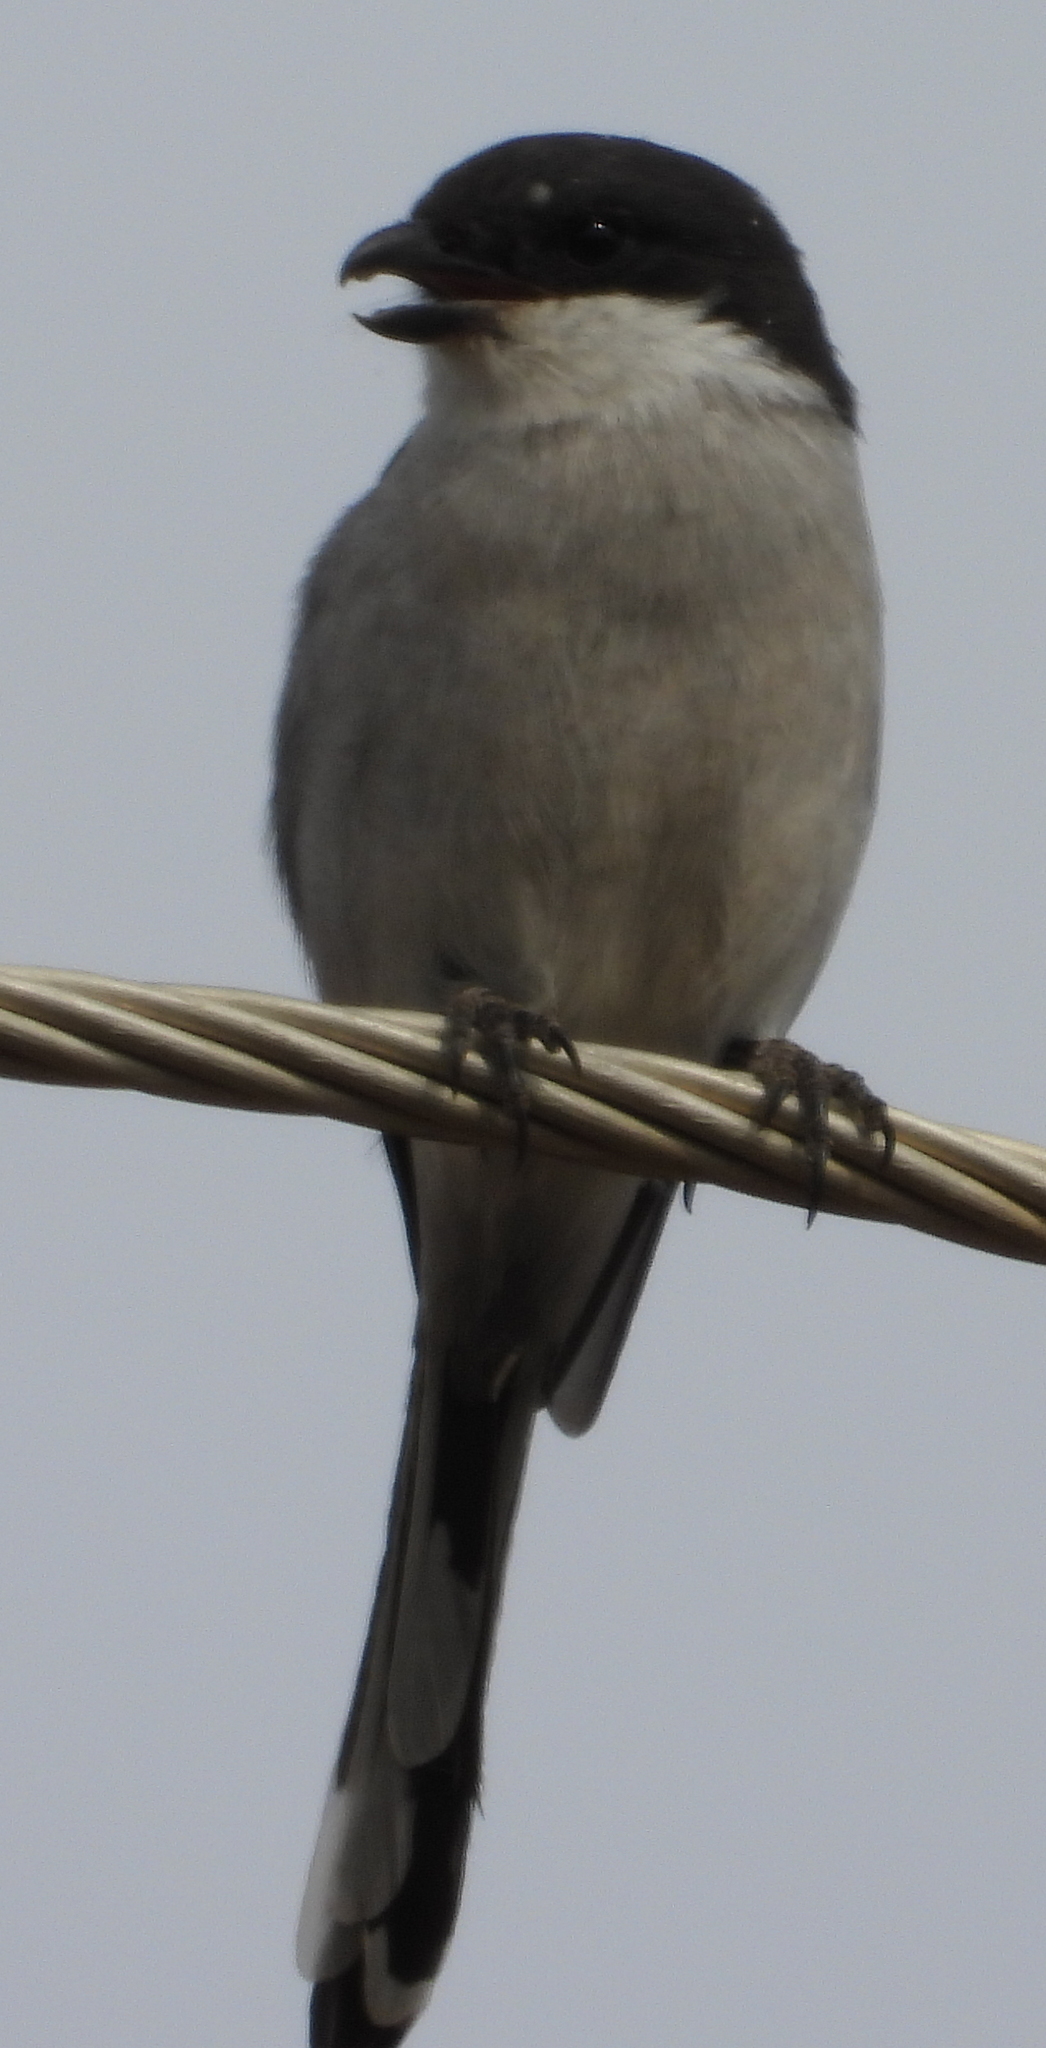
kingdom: Animalia
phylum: Chordata
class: Aves
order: Passeriformes
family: Laniidae
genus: Lanius
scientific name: Lanius collaris
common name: Southern fiscal
